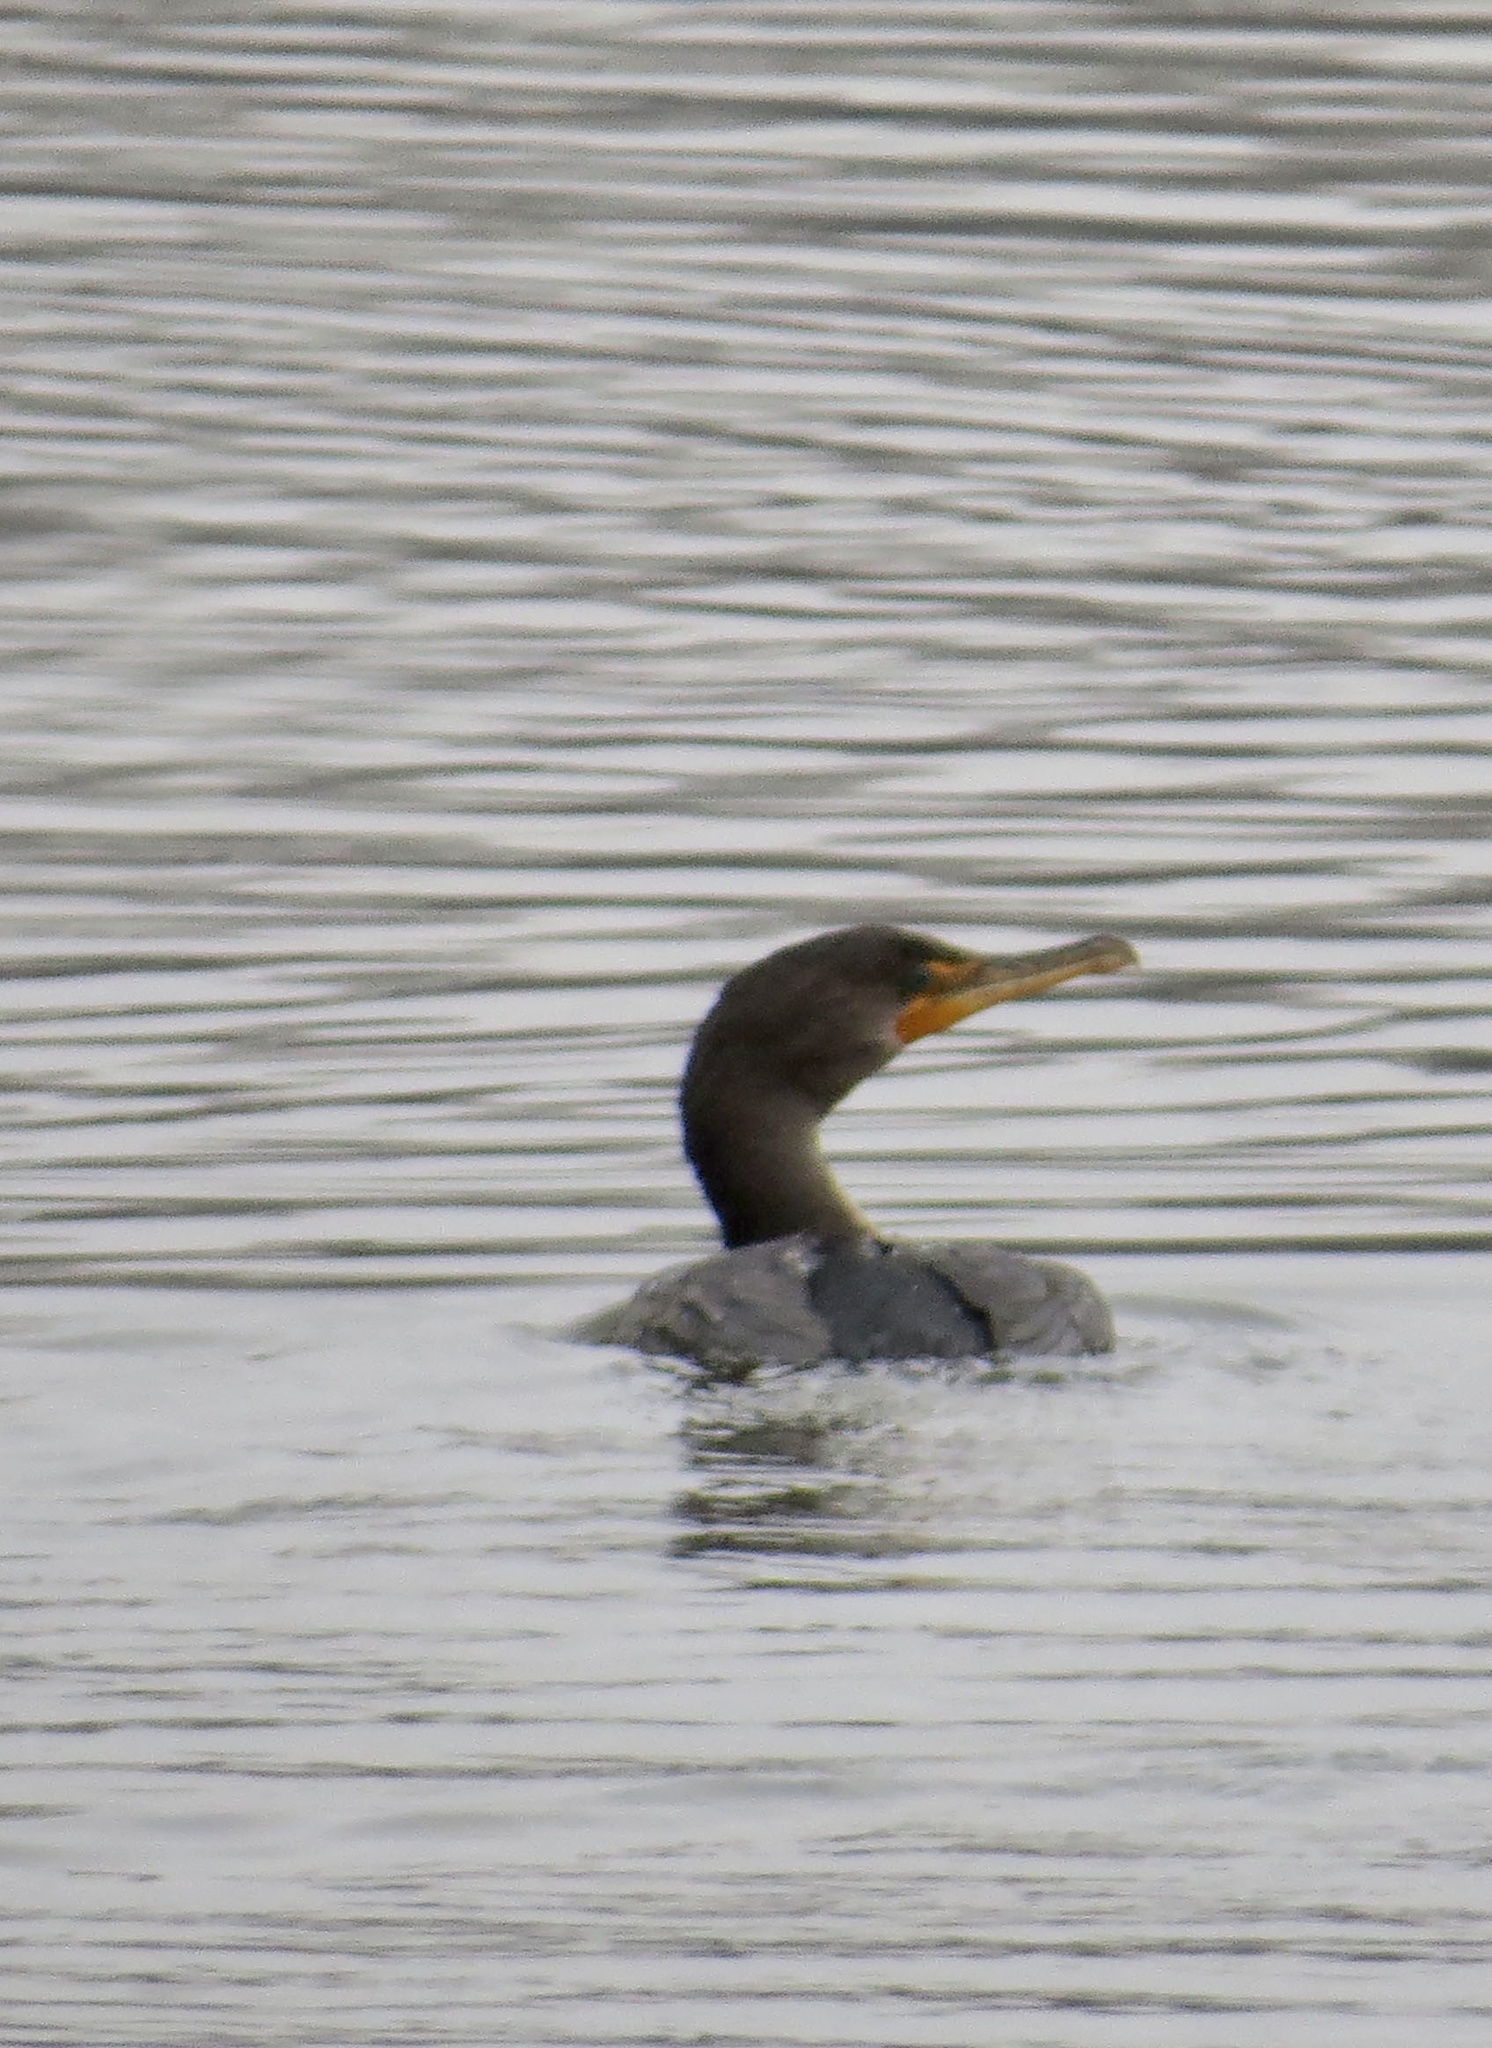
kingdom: Animalia
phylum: Chordata
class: Aves
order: Suliformes
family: Phalacrocoracidae
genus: Phalacrocorax
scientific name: Phalacrocorax auritus
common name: Double-crested cormorant
